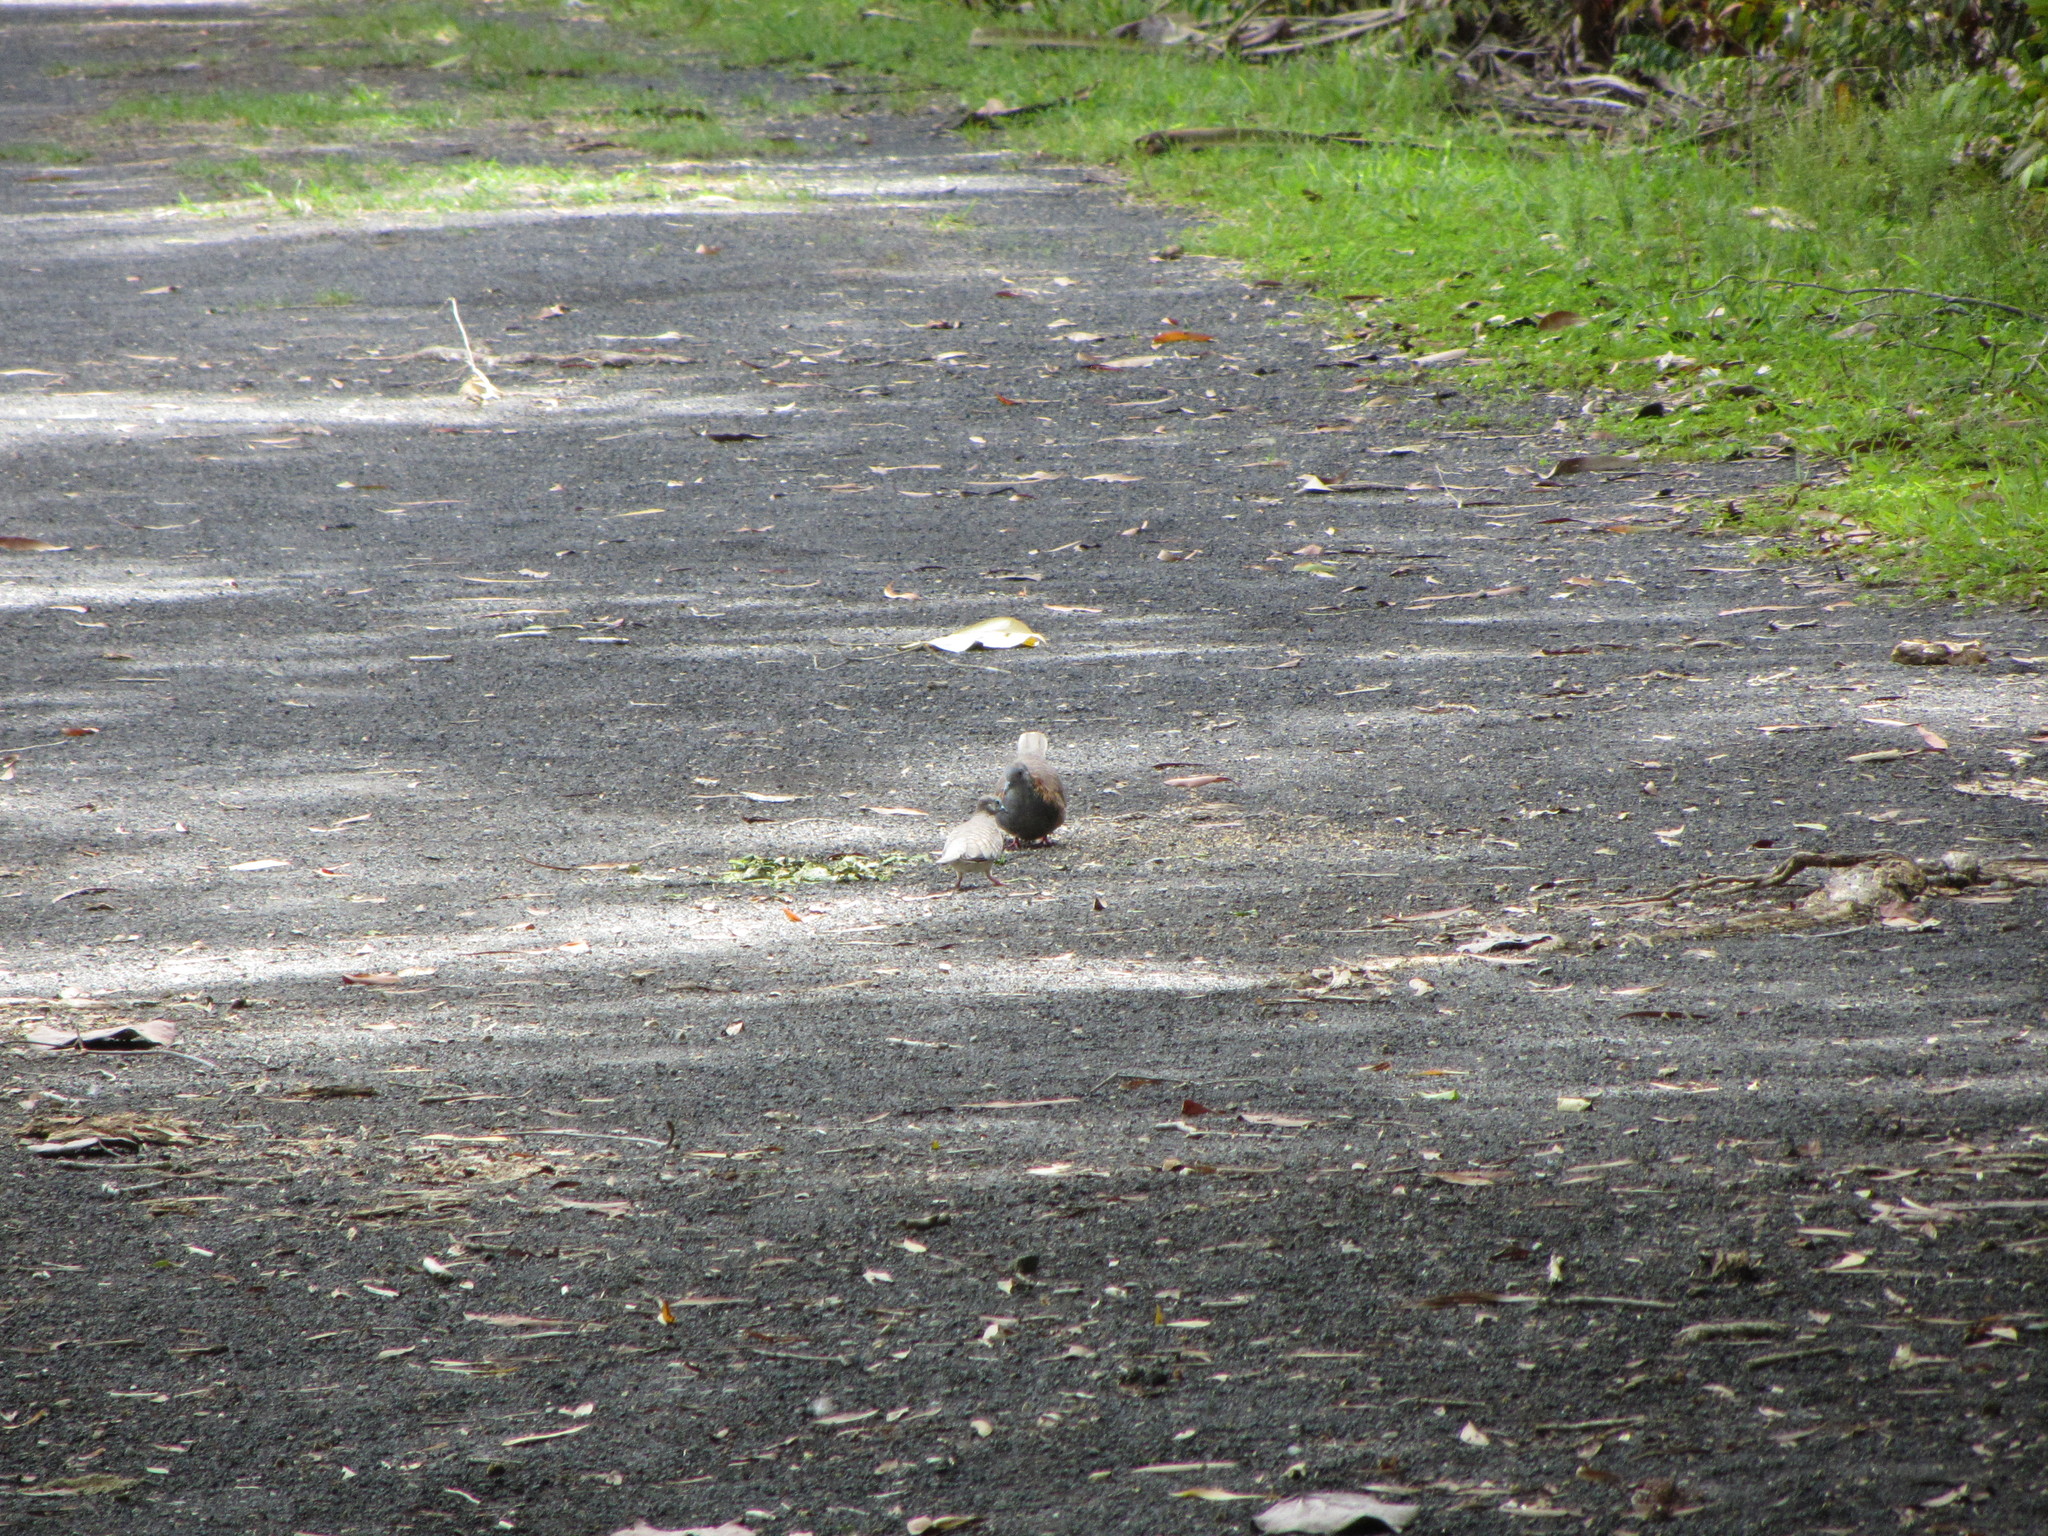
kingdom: Animalia
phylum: Chordata
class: Aves
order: Columbiformes
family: Columbidae
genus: Geopelia
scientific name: Geopelia humeralis
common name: Bar-shouldered dove
